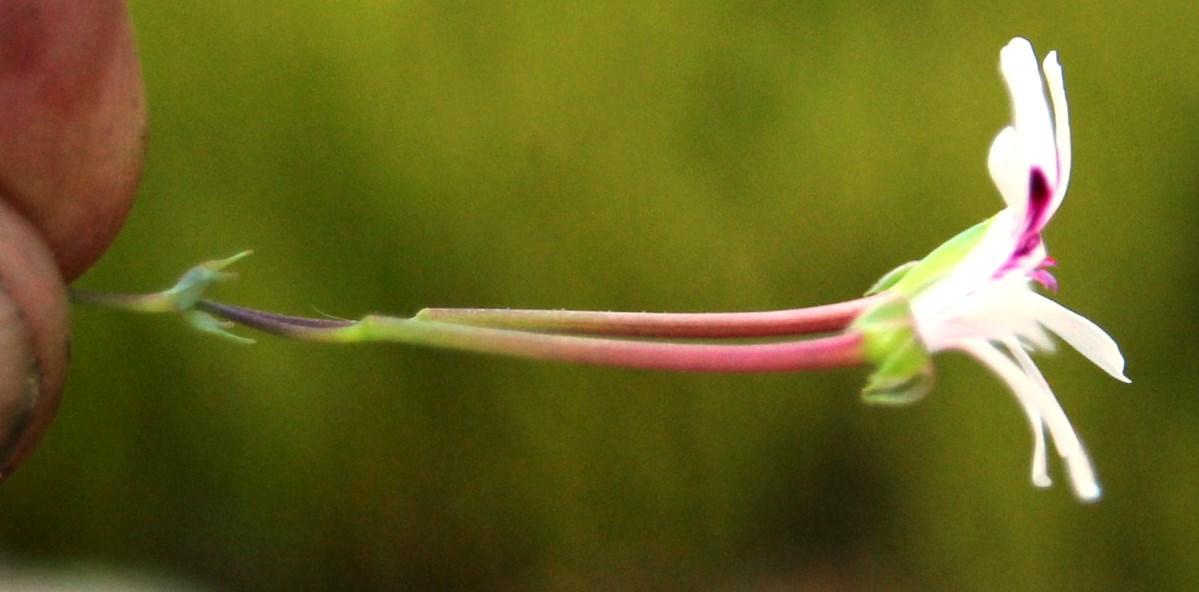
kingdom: Plantae
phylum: Tracheophyta
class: Magnoliopsida
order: Geraniales
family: Geraniaceae
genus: Pelargonium
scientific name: Pelargonium patulum
